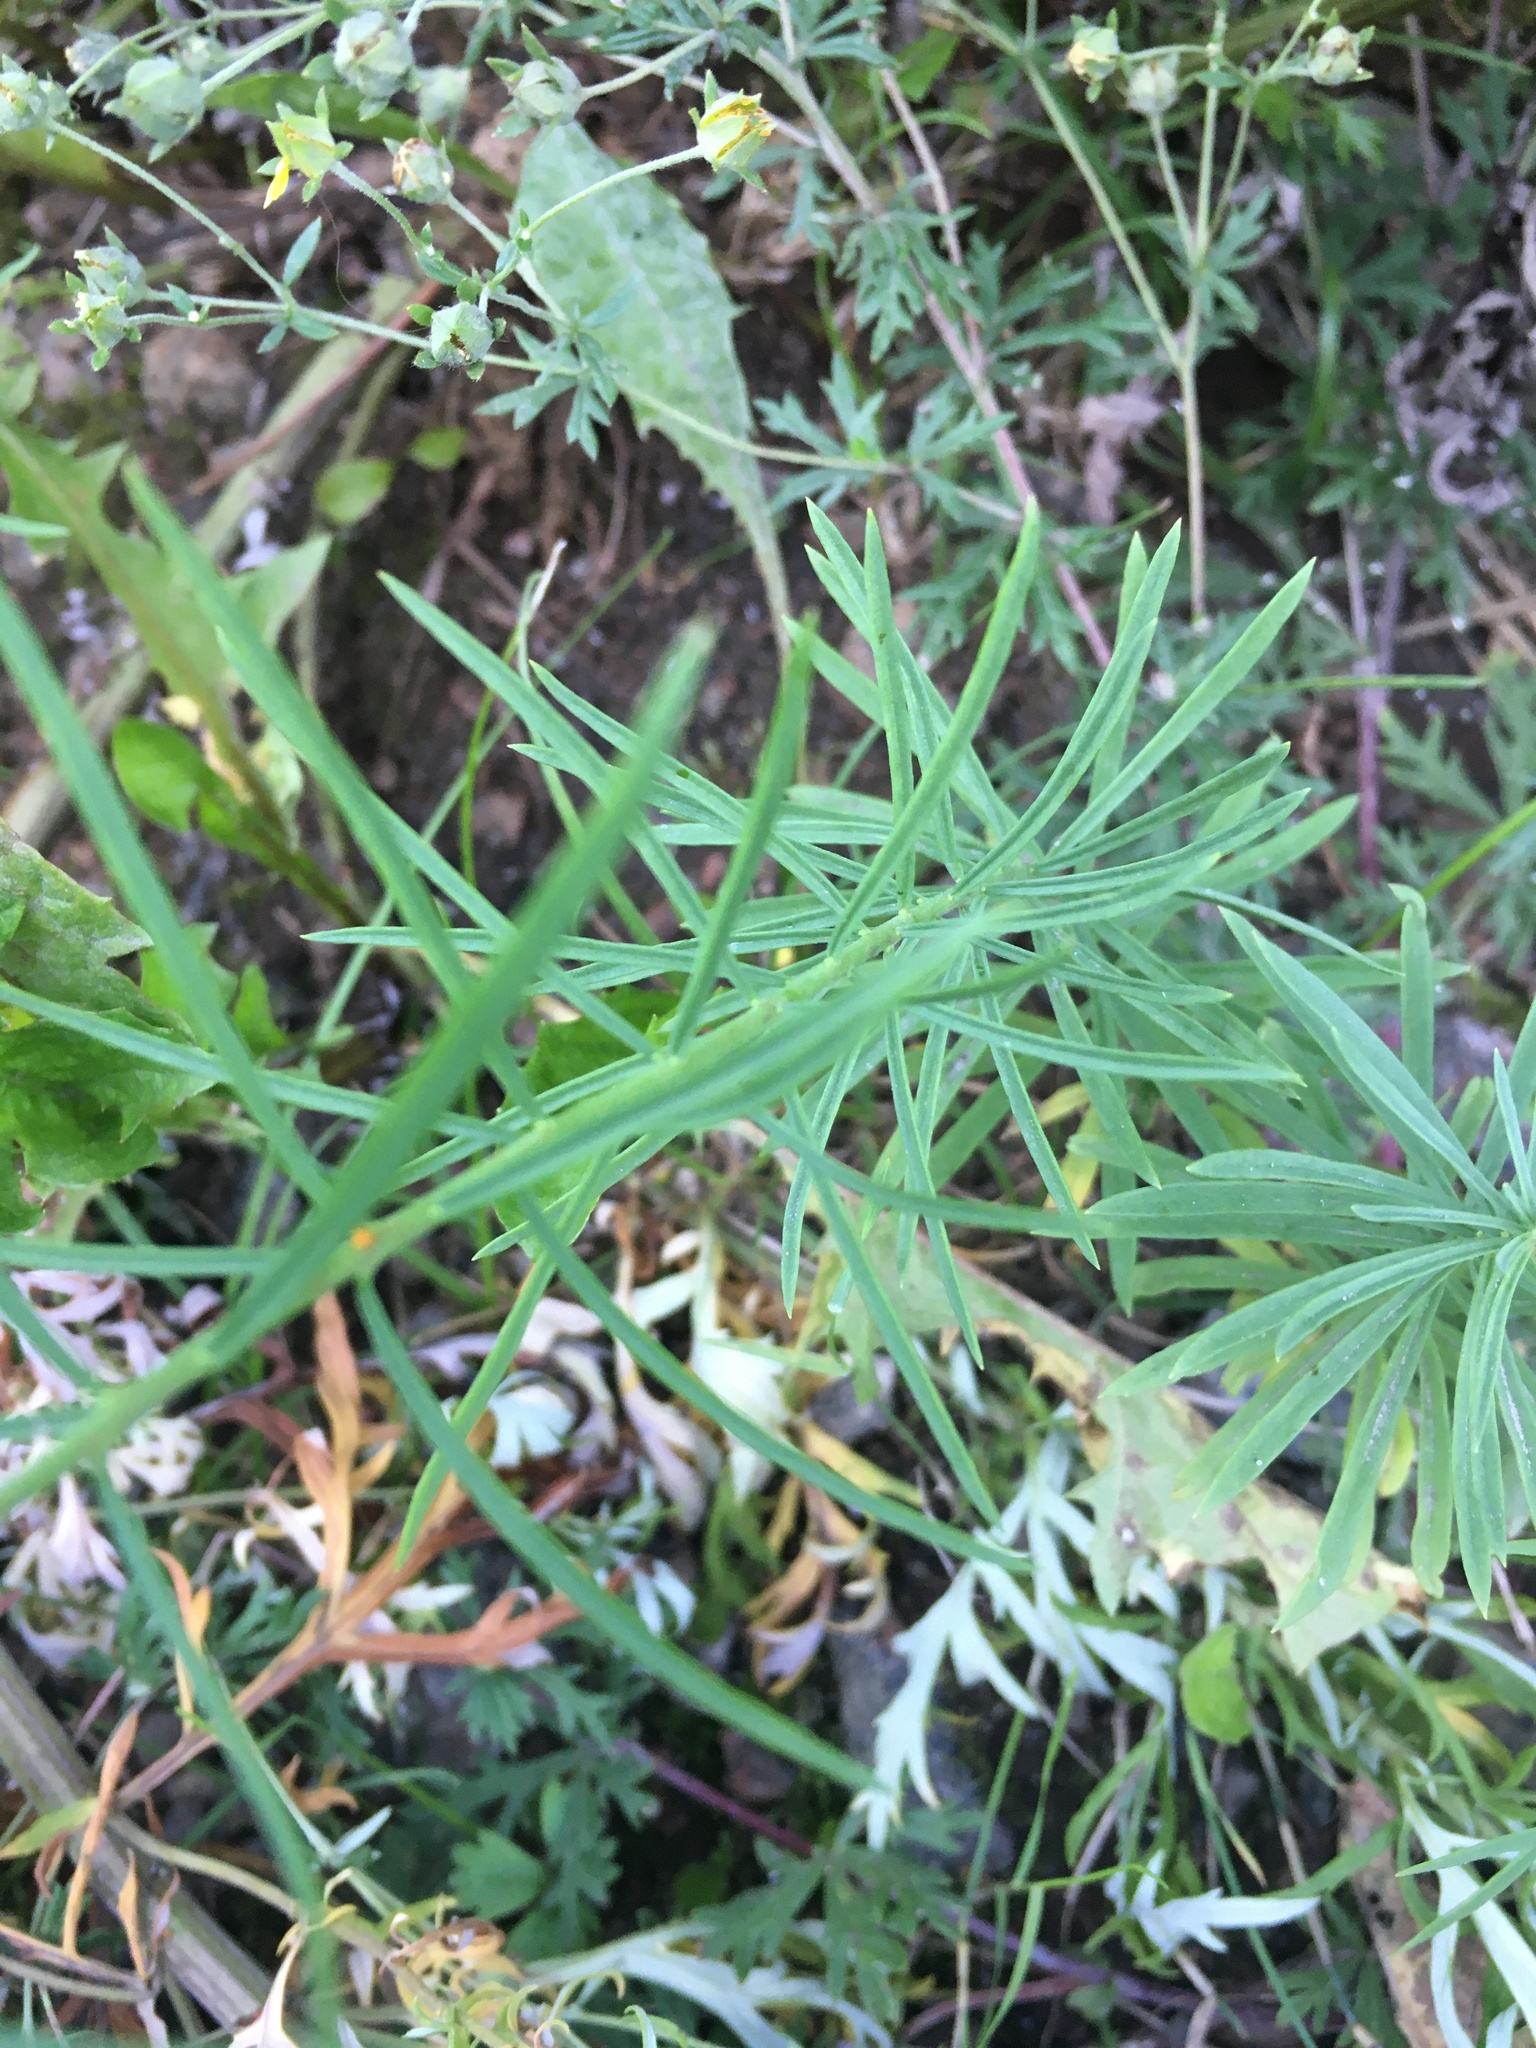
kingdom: Plantae
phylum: Tracheophyta
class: Magnoliopsida
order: Lamiales
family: Plantaginaceae
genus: Linaria
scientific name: Linaria vulgaris
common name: Butter and eggs
